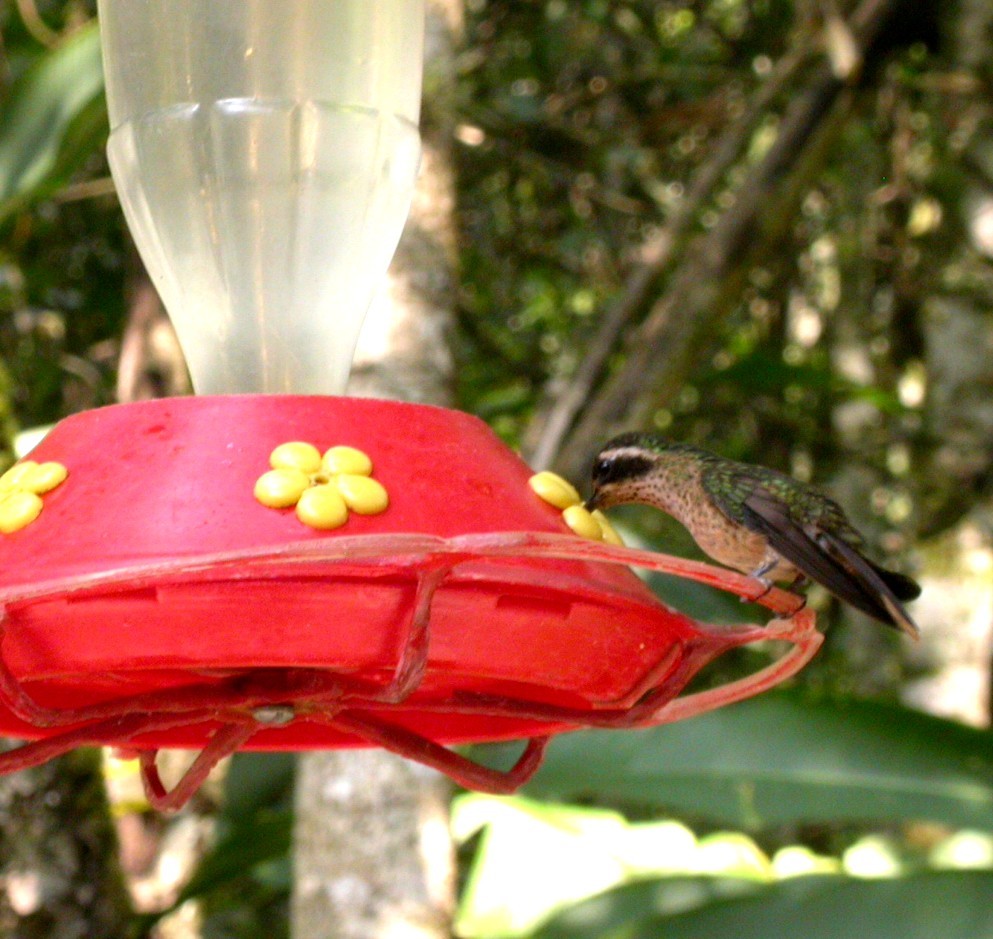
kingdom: Animalia
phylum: Chordata
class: Aves
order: Apodiformes
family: Trochilidae
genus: Adelomyia
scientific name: Adelomyia melanogenys
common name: Speckled hummingbird
